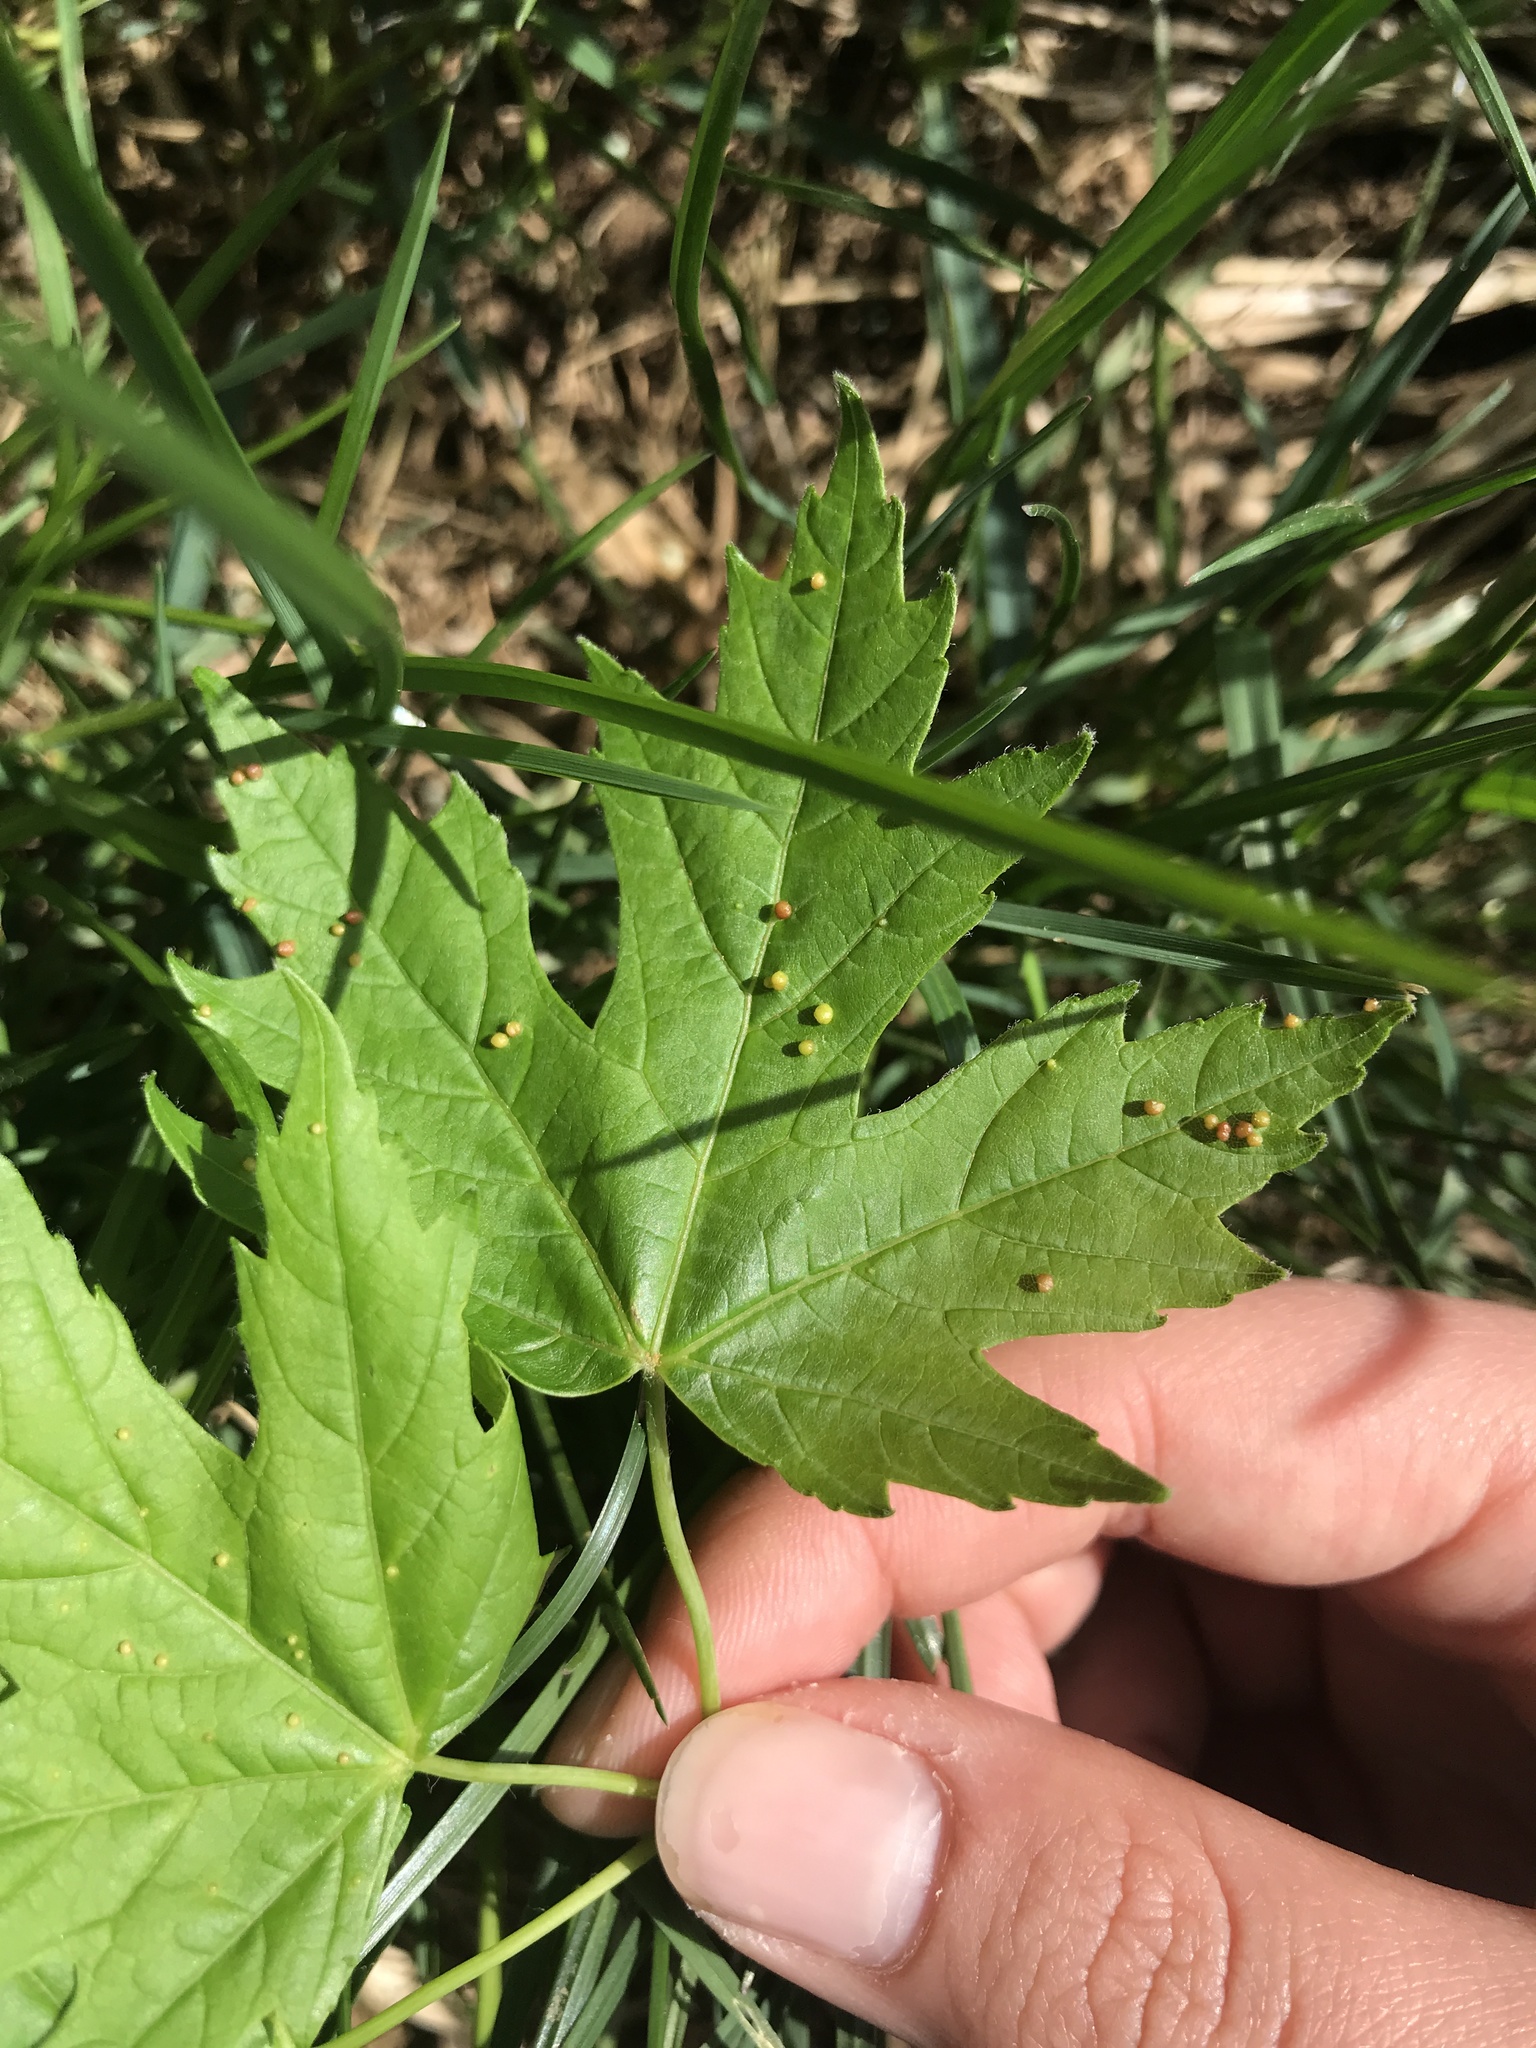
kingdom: Animalia
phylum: Arthropoda
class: Arachnida
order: Trombidiformes
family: Eriophyidae
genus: Vasates
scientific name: Vasates quadripedes
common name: Maple bladder gall mite
